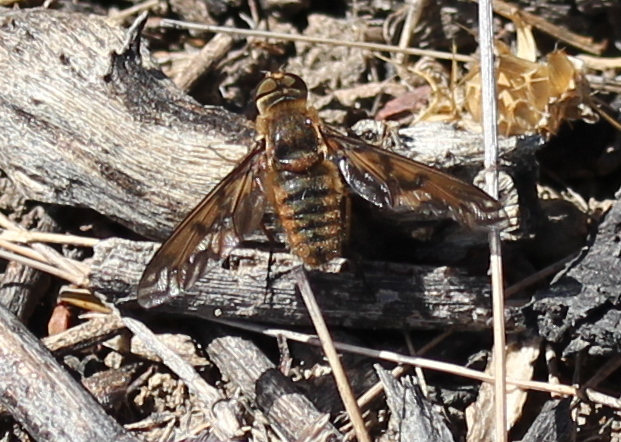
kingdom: Animalia
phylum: Arthropoda
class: Insecta
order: Diptera
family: Bombyliidae
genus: Poecilanthrax
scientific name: Poecilanthrax arethusa
